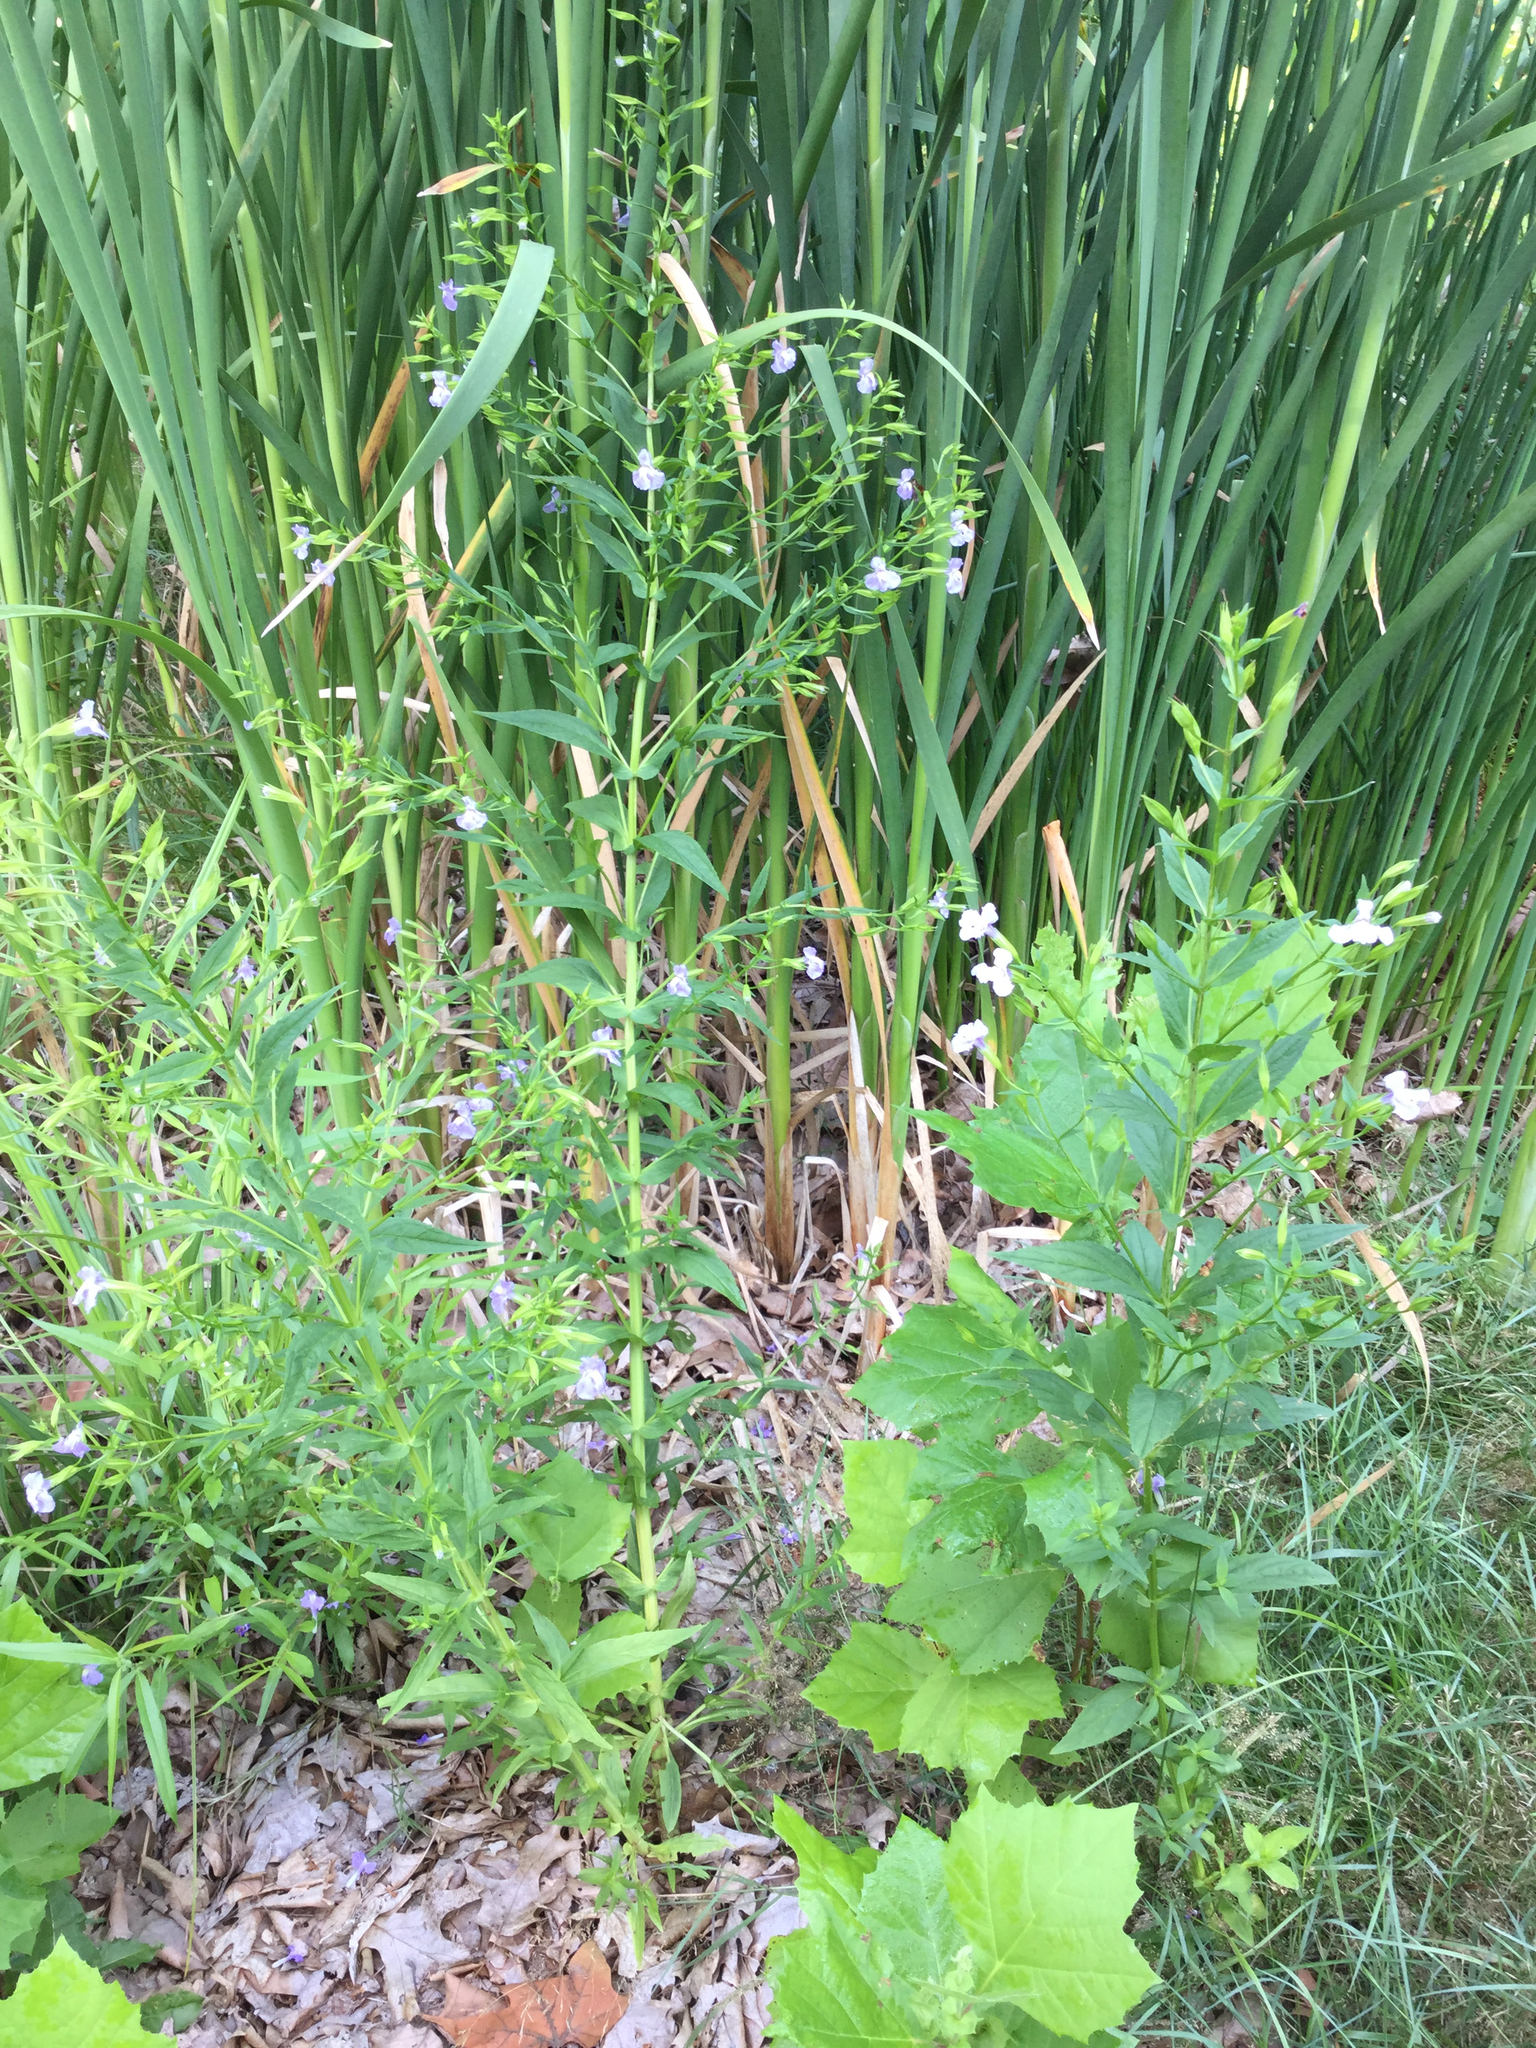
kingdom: Plantae
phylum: Tracheophyta
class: Magnoliopsida
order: Lamiales
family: Phrymaceae
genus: Mimulus
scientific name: Mimulus ringens
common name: Allegheny monkeyflower
